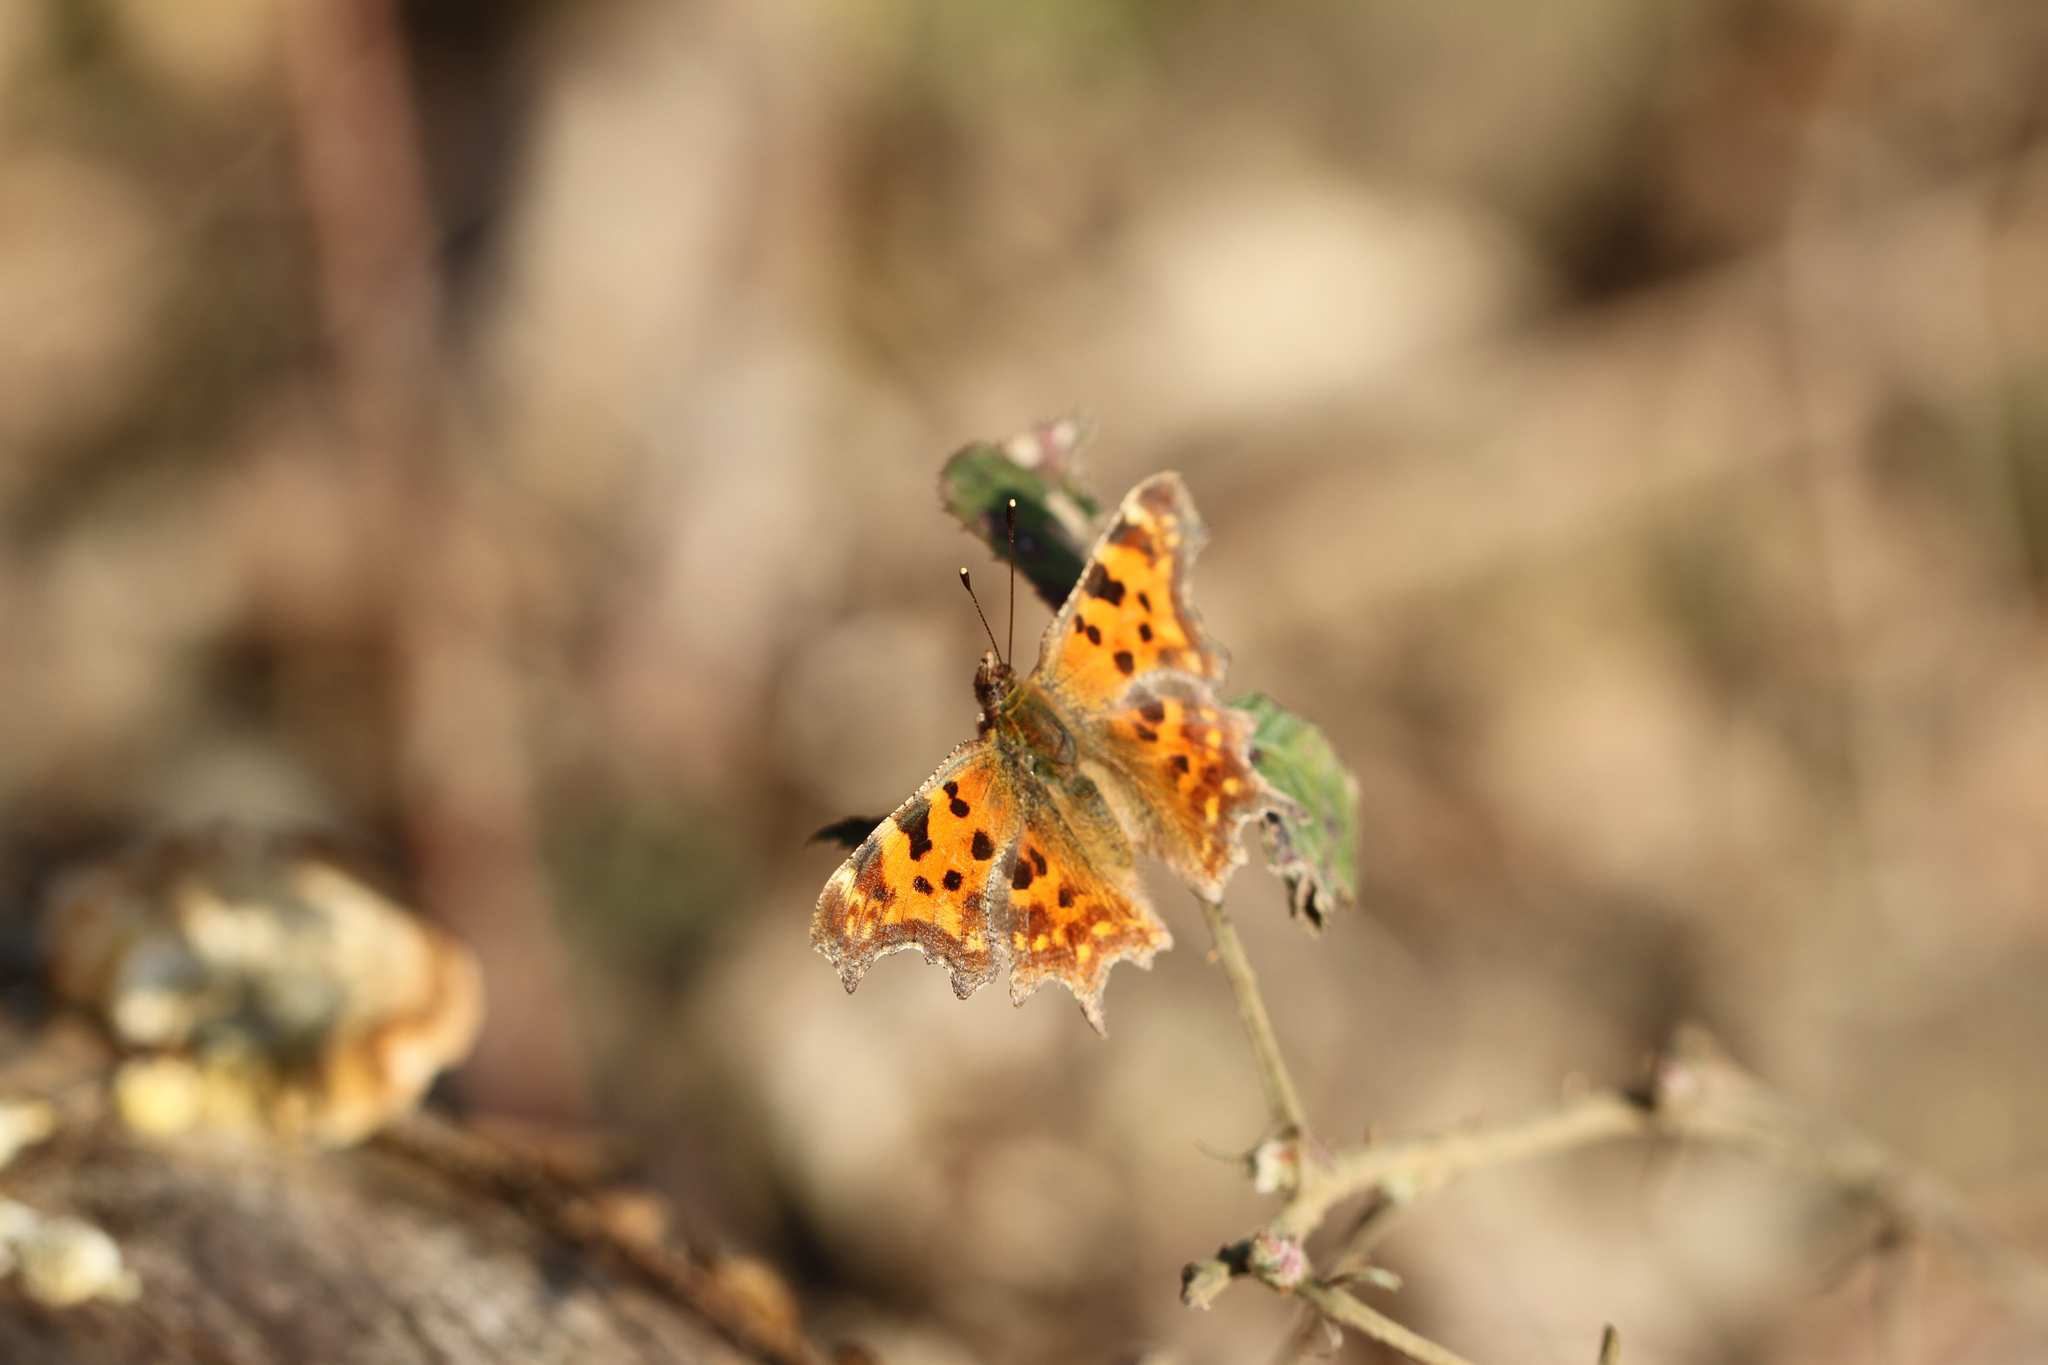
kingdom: Animalia
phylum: Arthropoda
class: Insecta
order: Lepidoptera
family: Nymphalidae
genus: Polygonia
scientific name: Polygonia c-album
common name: Comma
